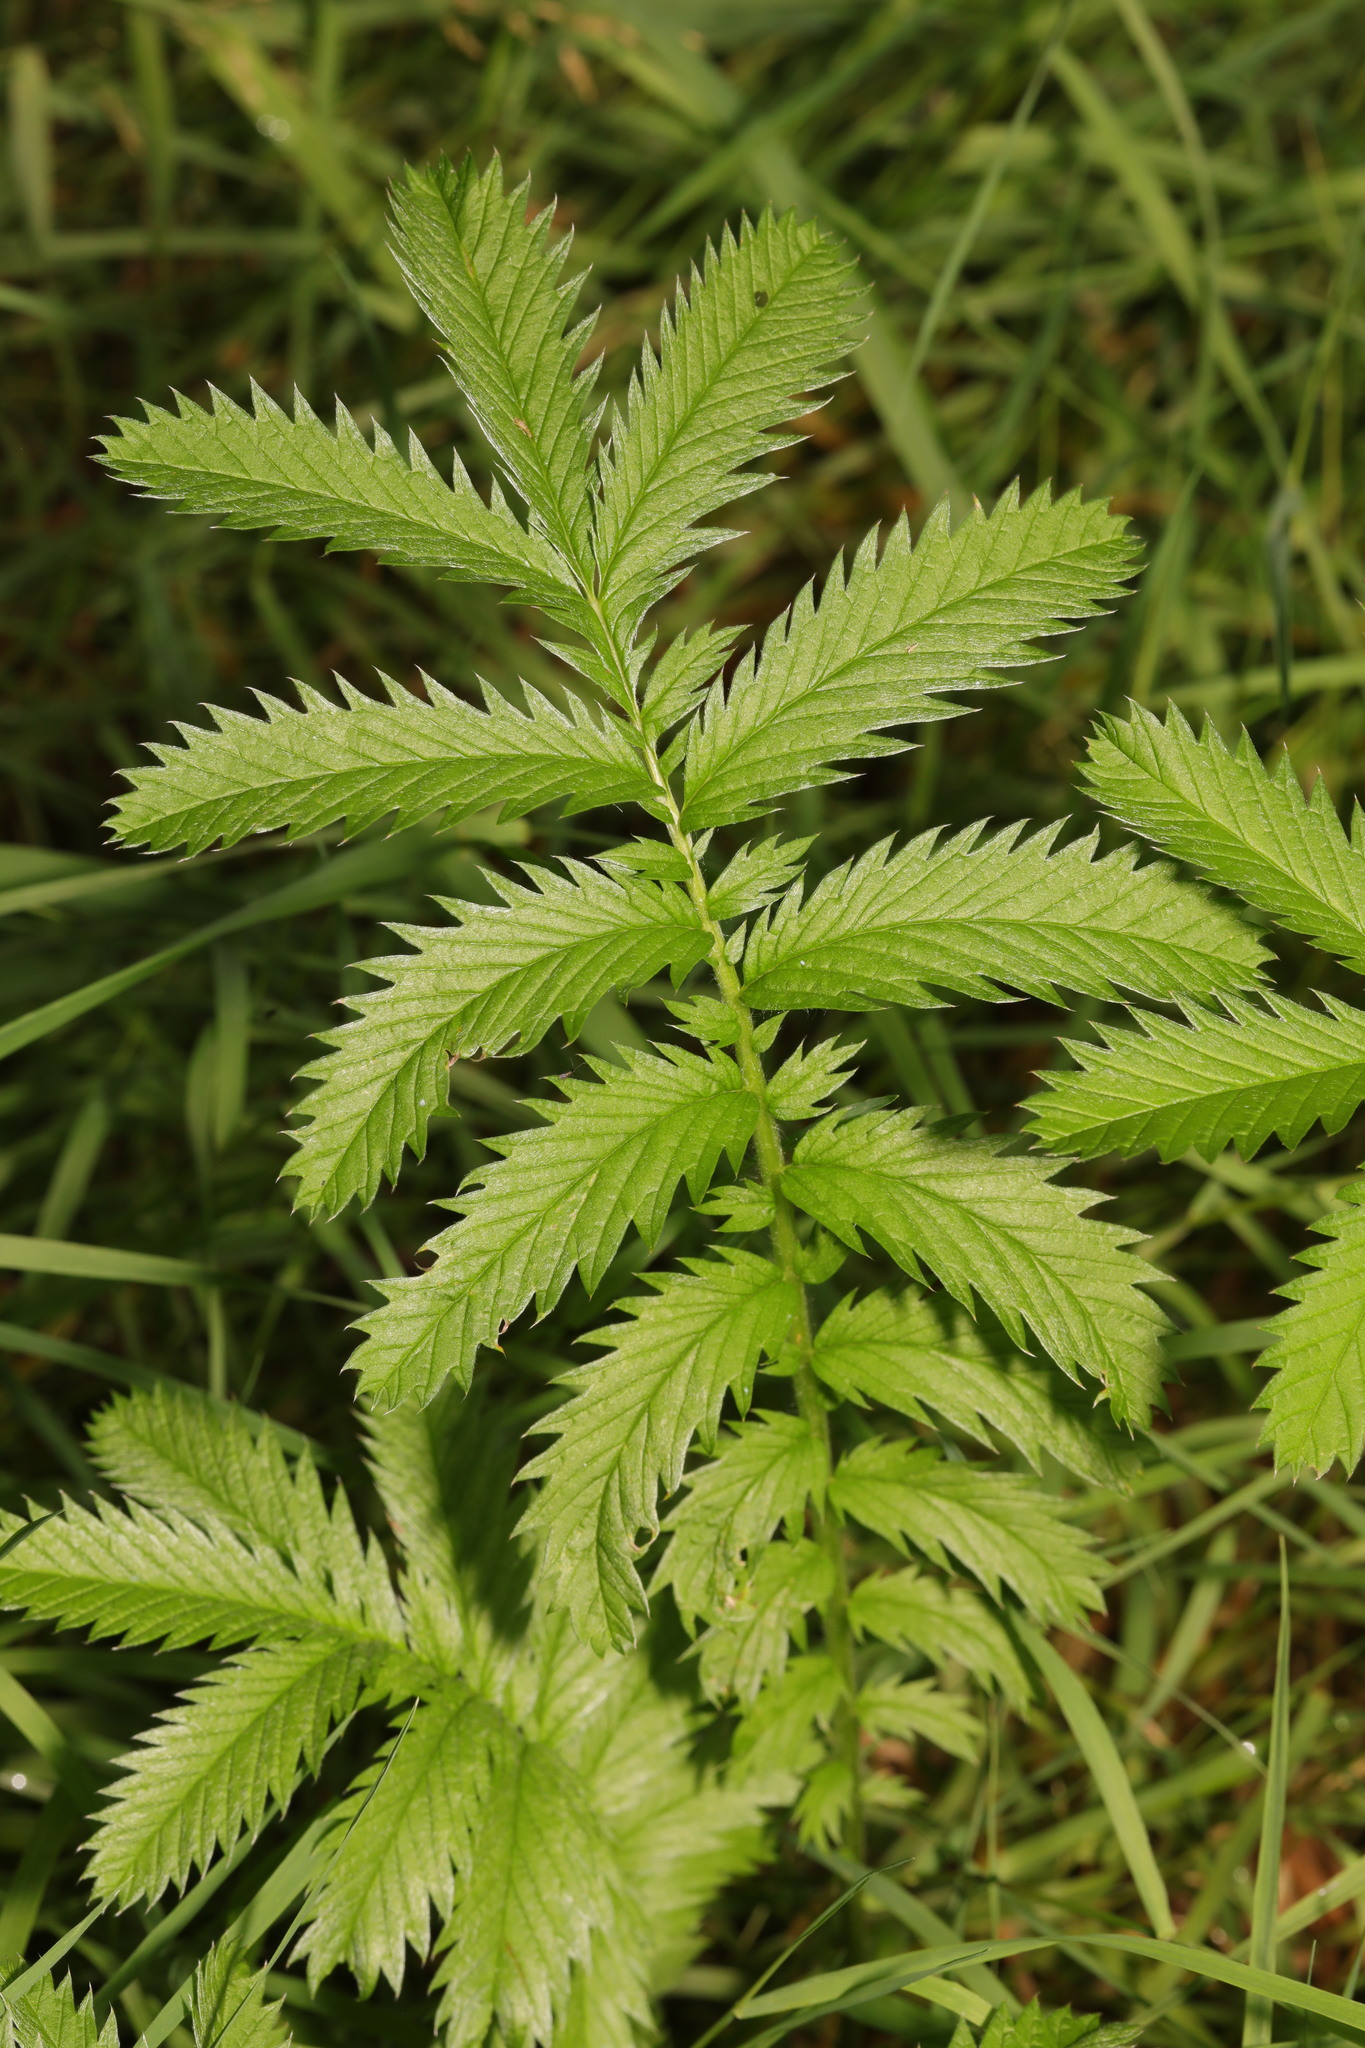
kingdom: Plantae
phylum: Tracheophyta
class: Magnoliopsida
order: Rosales
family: Rosaceae
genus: Argentina
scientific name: Argentina anserina
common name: Common silverweed
